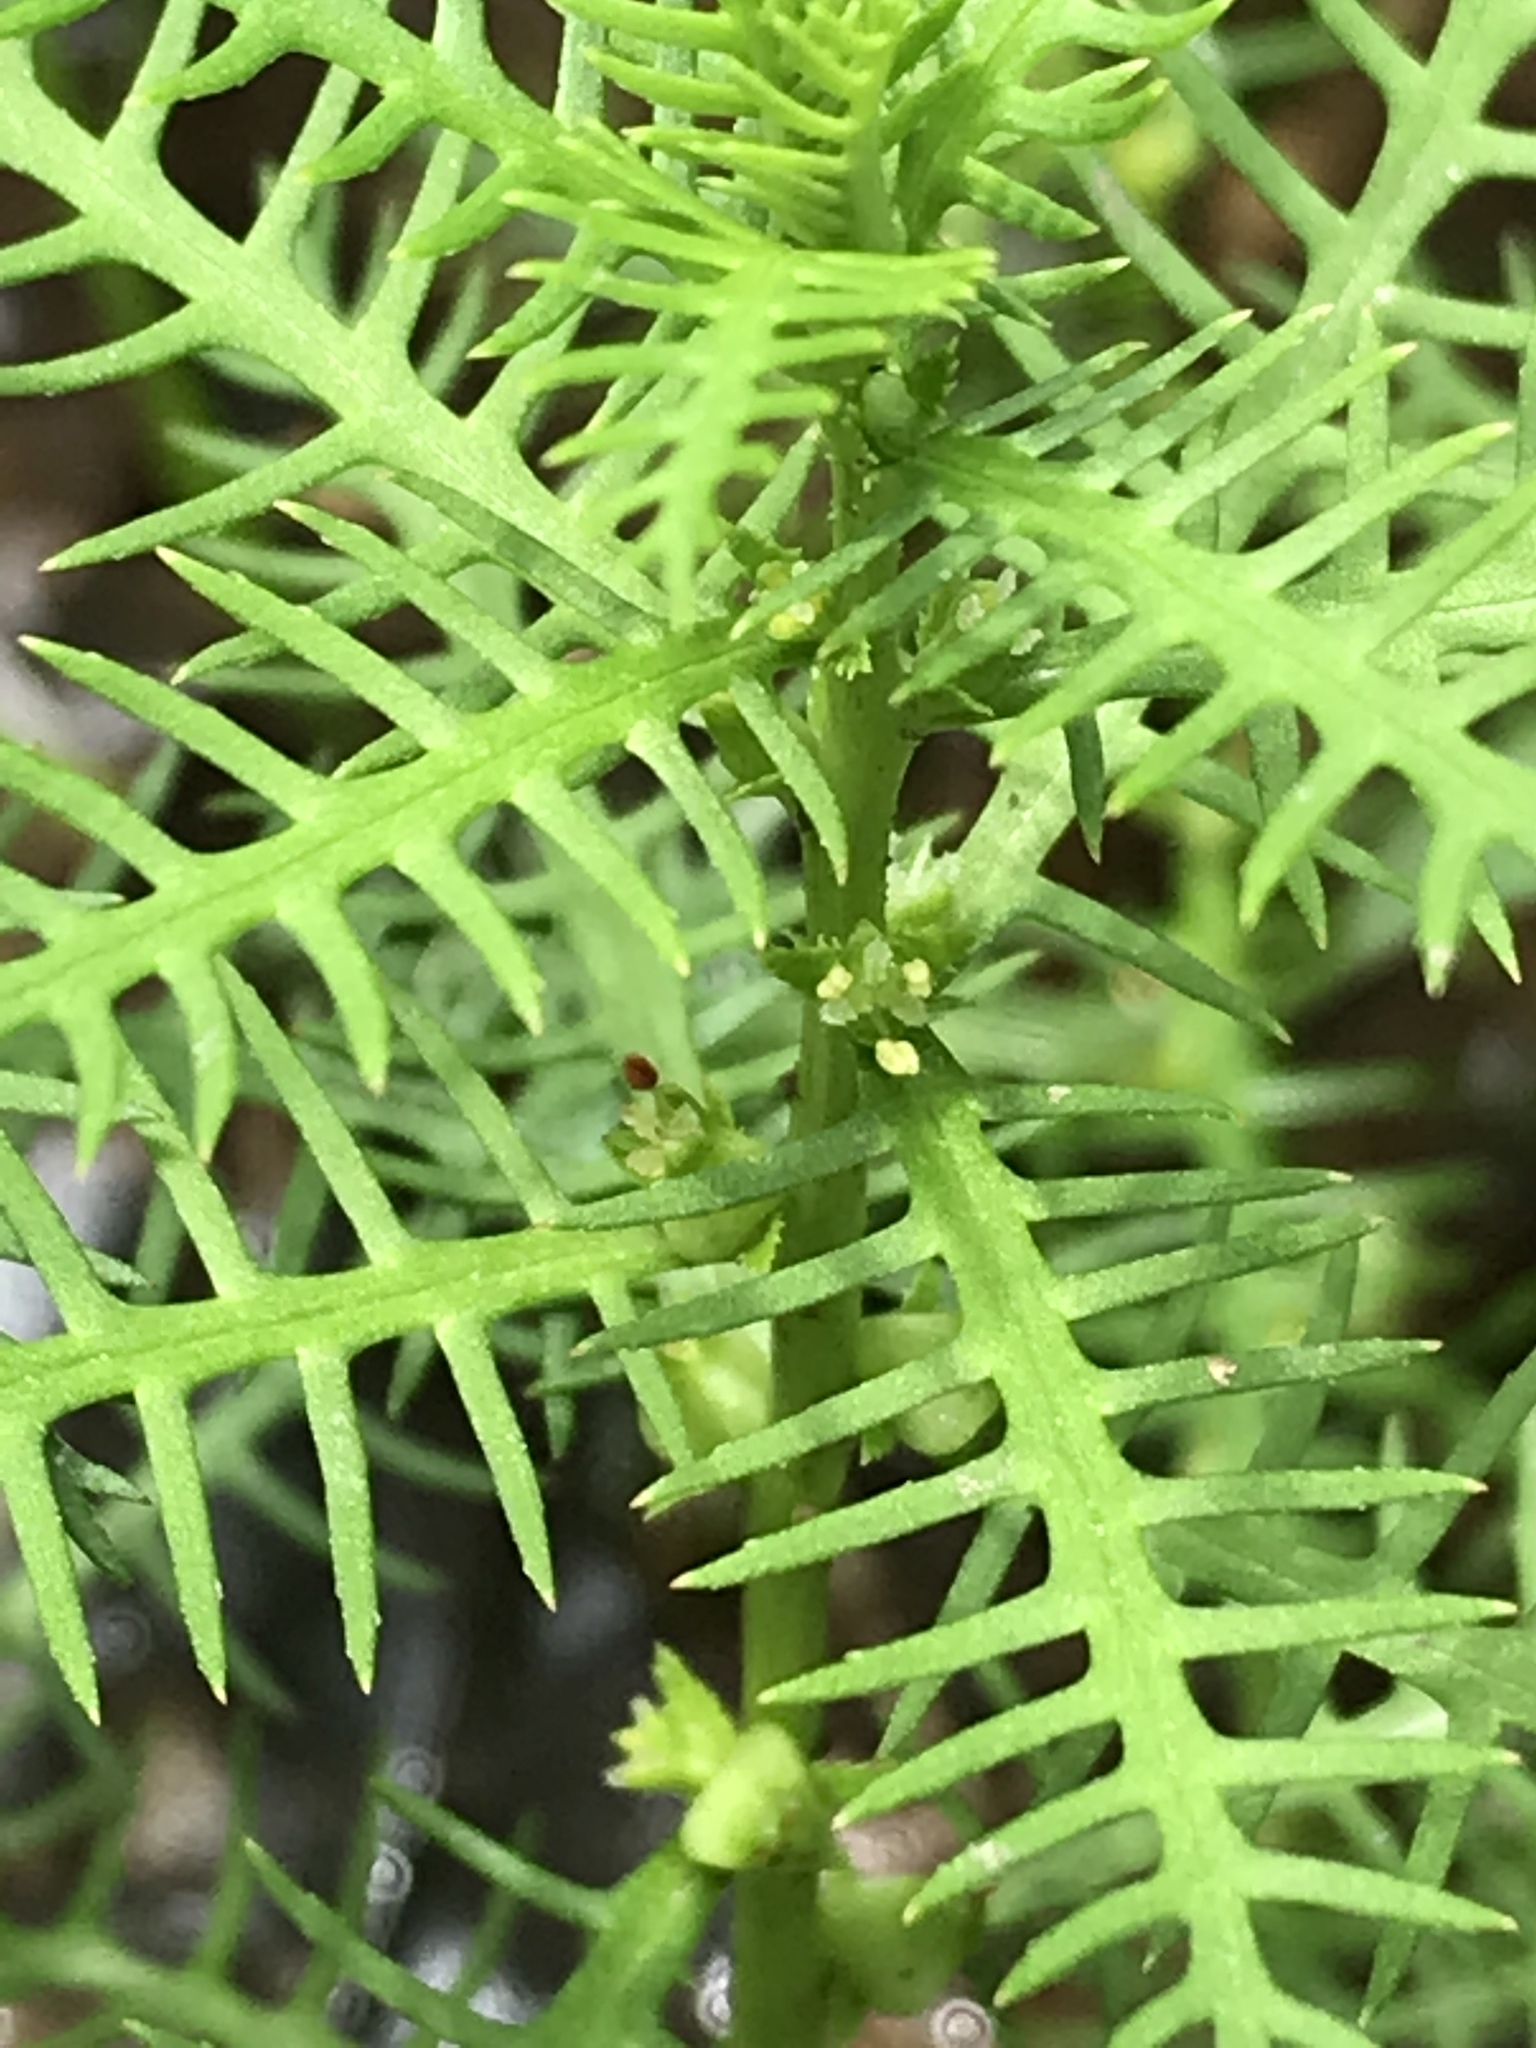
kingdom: Plantae
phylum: Tracheophyta
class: Magnoliopsida
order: Saxifragales
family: Haloragaceae
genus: Proserpinaca
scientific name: Proserpinaca pectinata
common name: Comb-leaved mermaidweed
